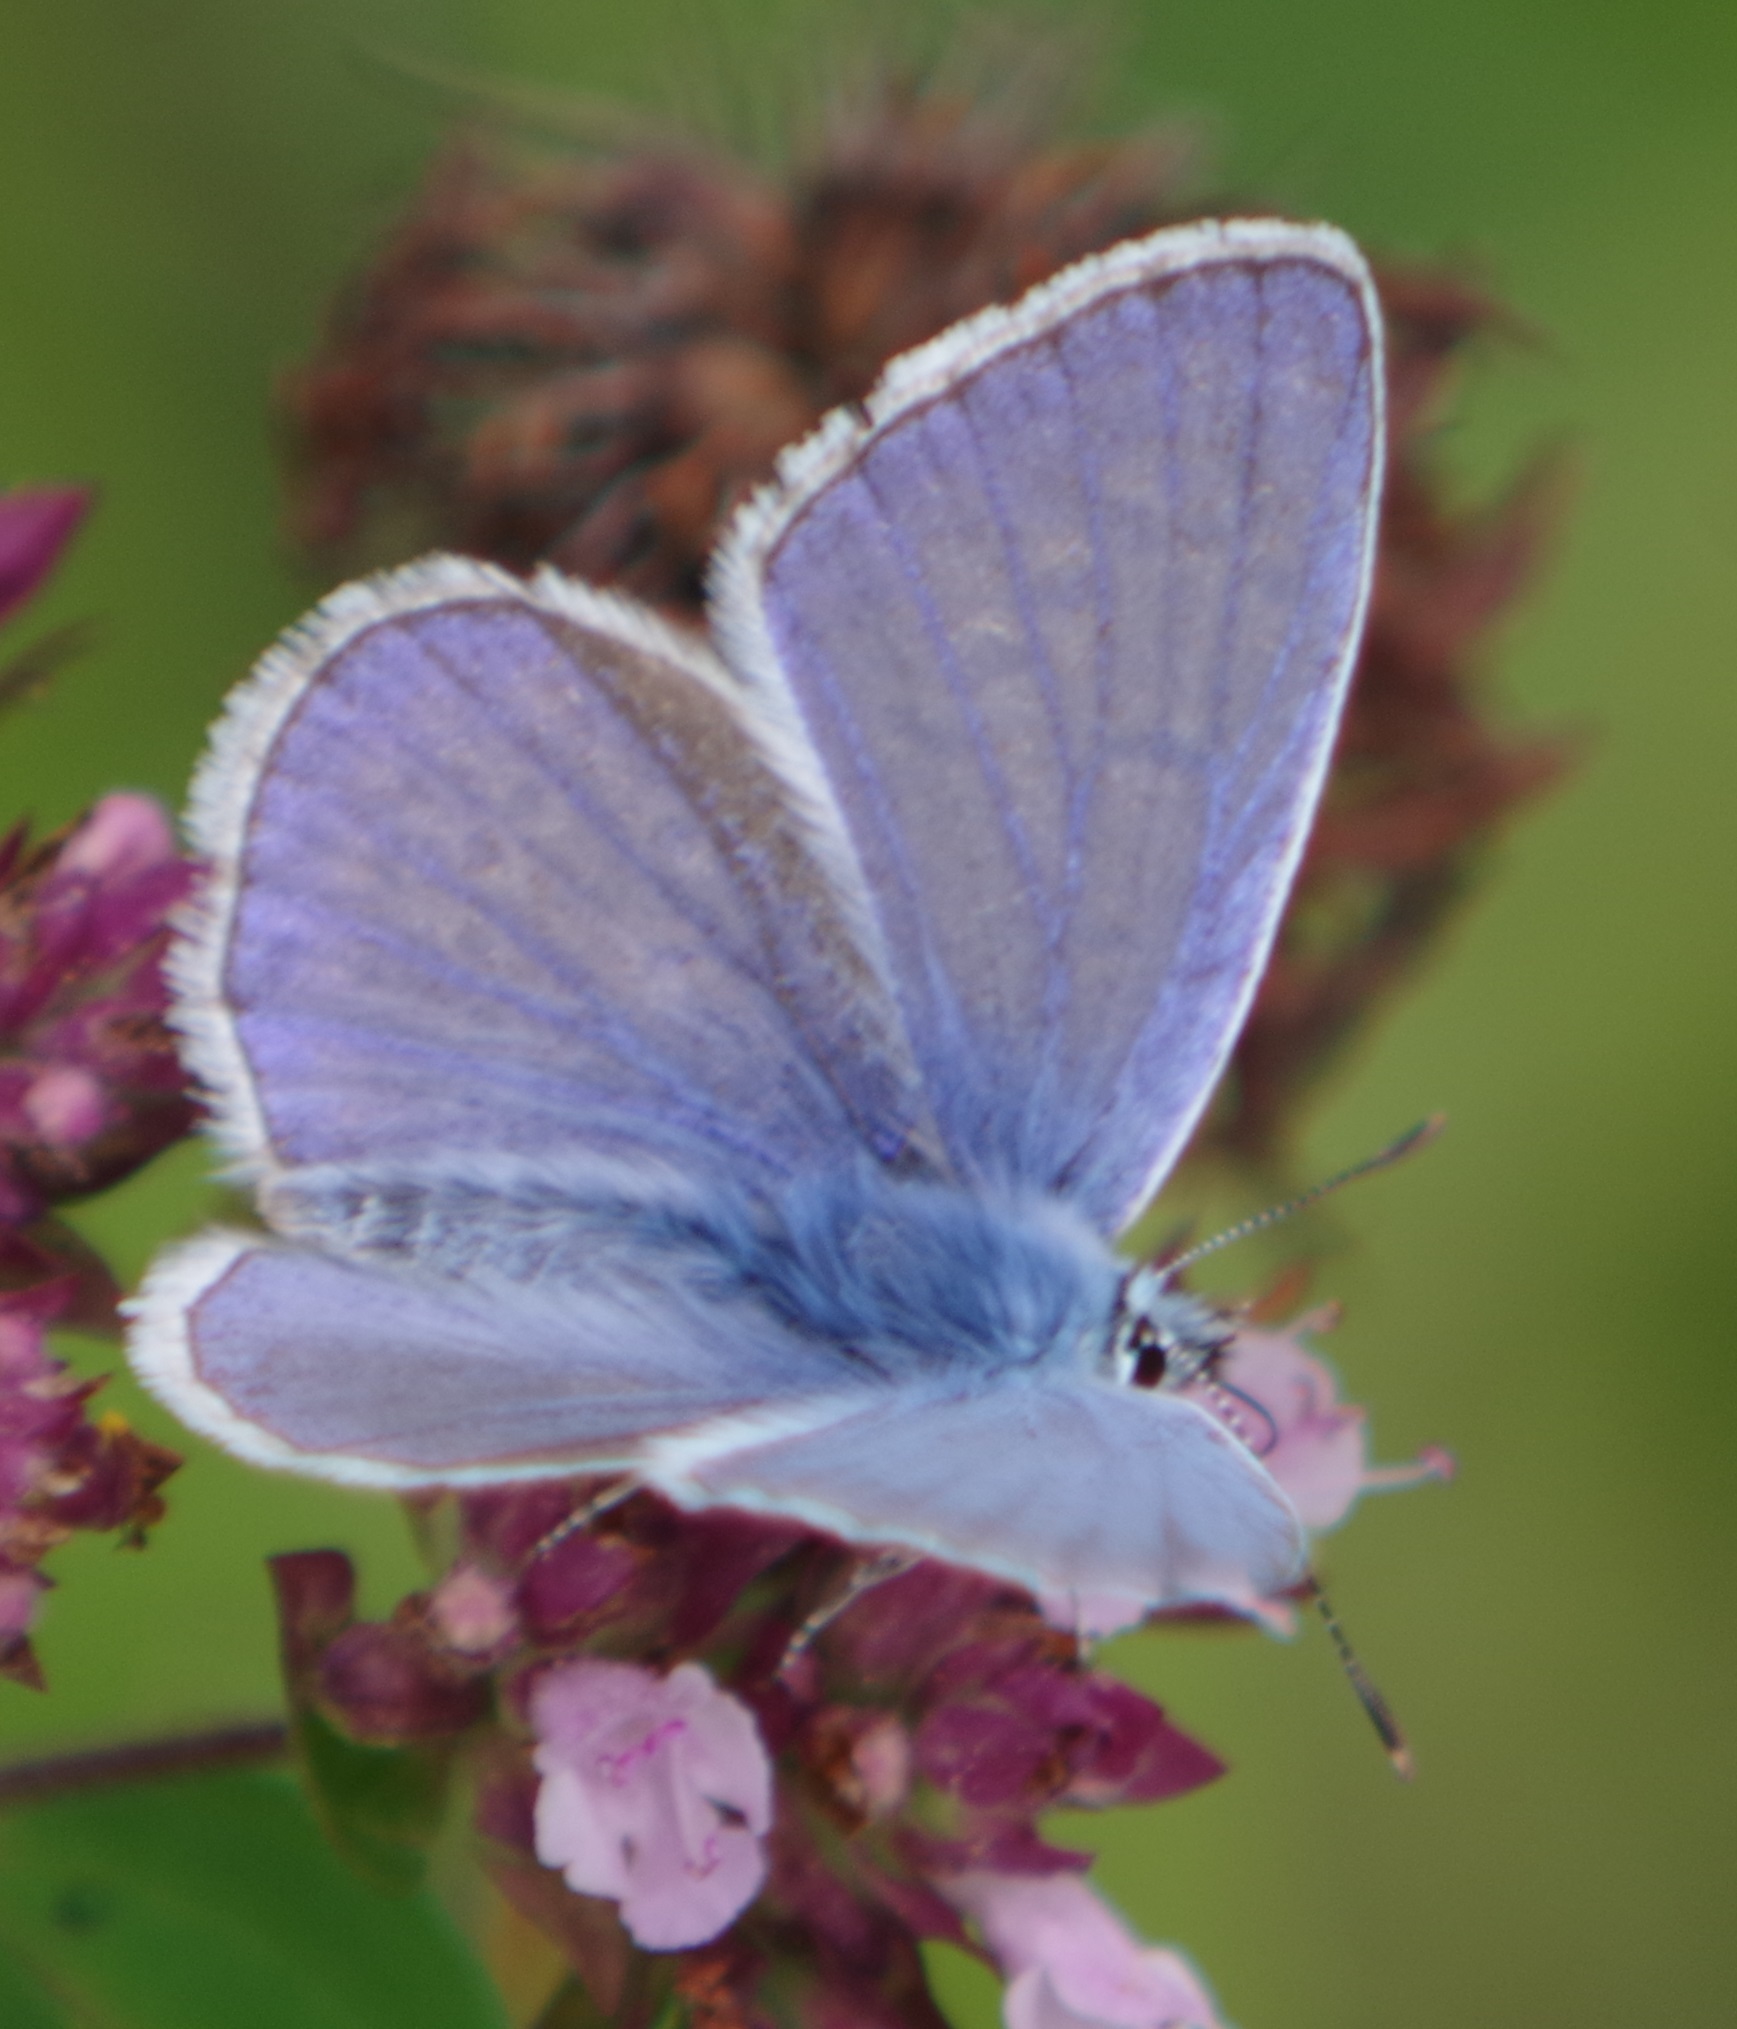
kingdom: Animalia
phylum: Arthropoda
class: Insecta
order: Lepidoptera
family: Lycaenidae
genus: Polyommatus
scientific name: Polyommatus icarus
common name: Common blue
